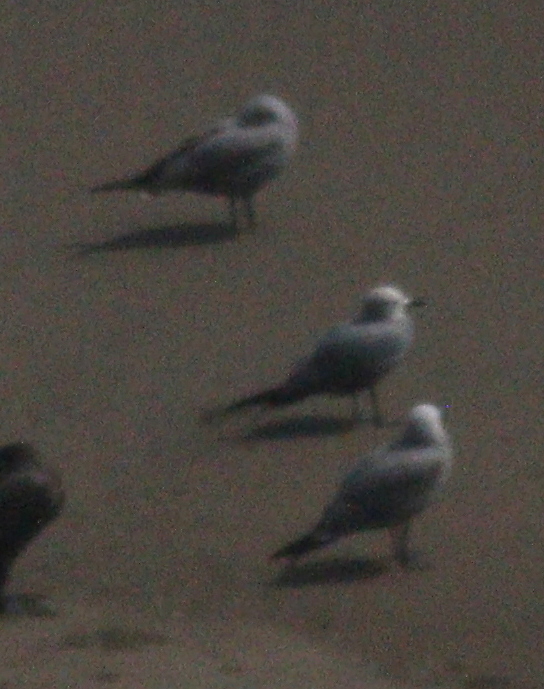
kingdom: Animalia
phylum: Chordata
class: Aves
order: Charadriiformes
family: Laridae
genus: Leucophaeus
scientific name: Leucophaeus modestus
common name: Gray gull
